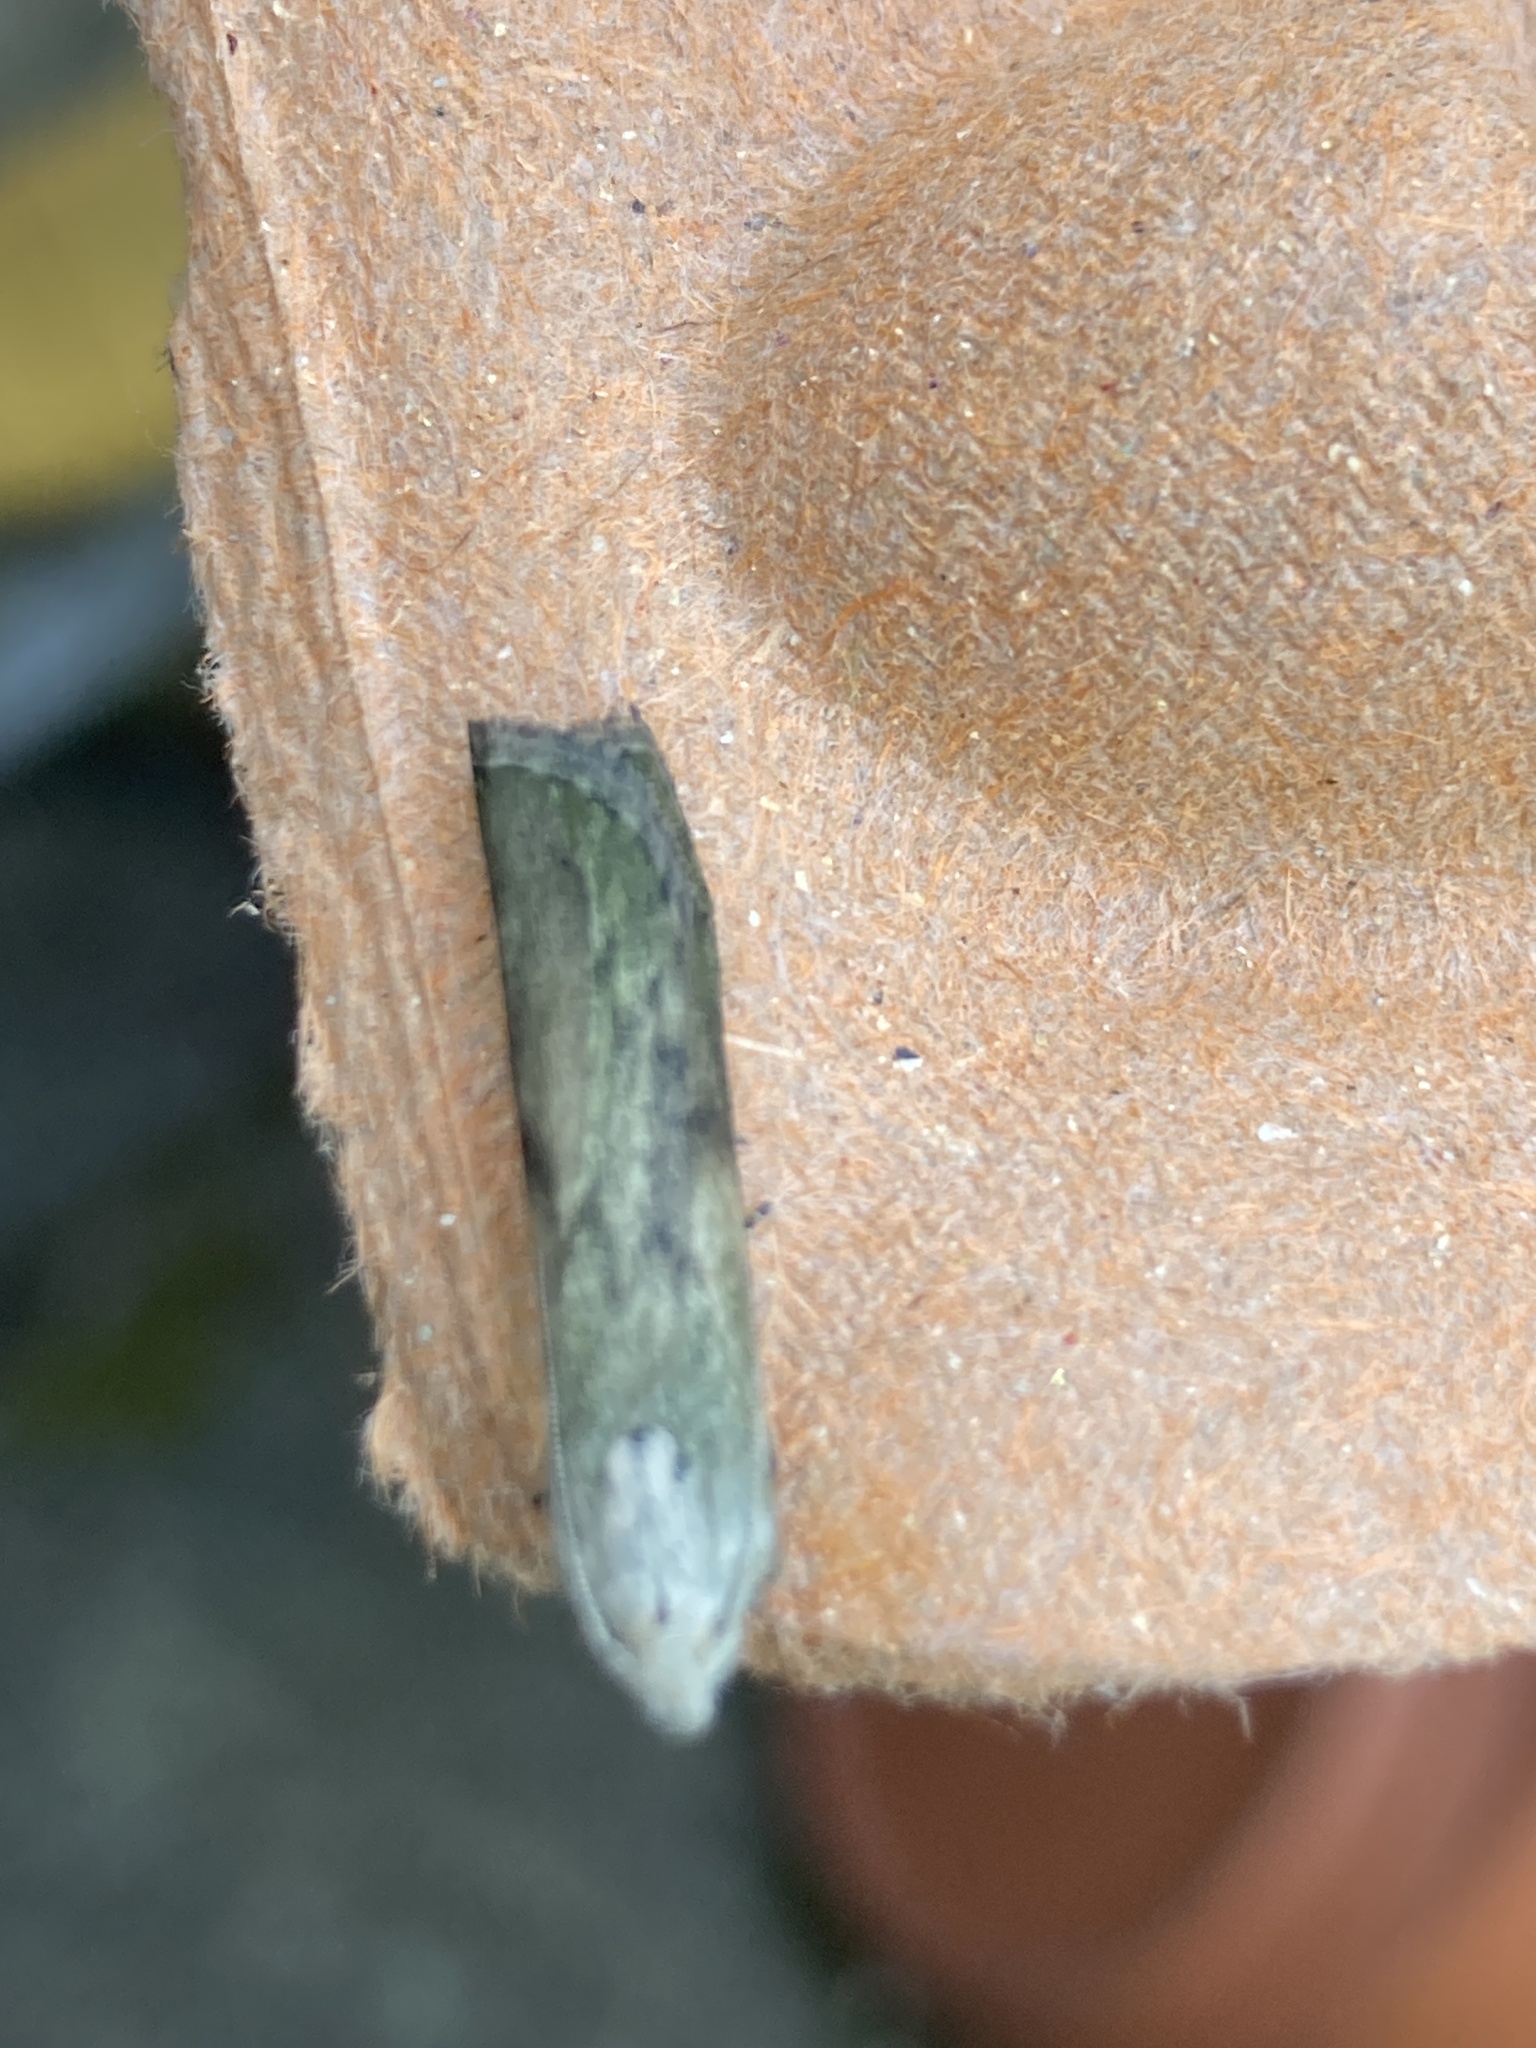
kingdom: Animalia
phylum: Arthropoda
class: Insecta
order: Lepidoptera
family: Pyralidae
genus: Aphomia
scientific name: Aphomia sociella
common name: Bee moth
